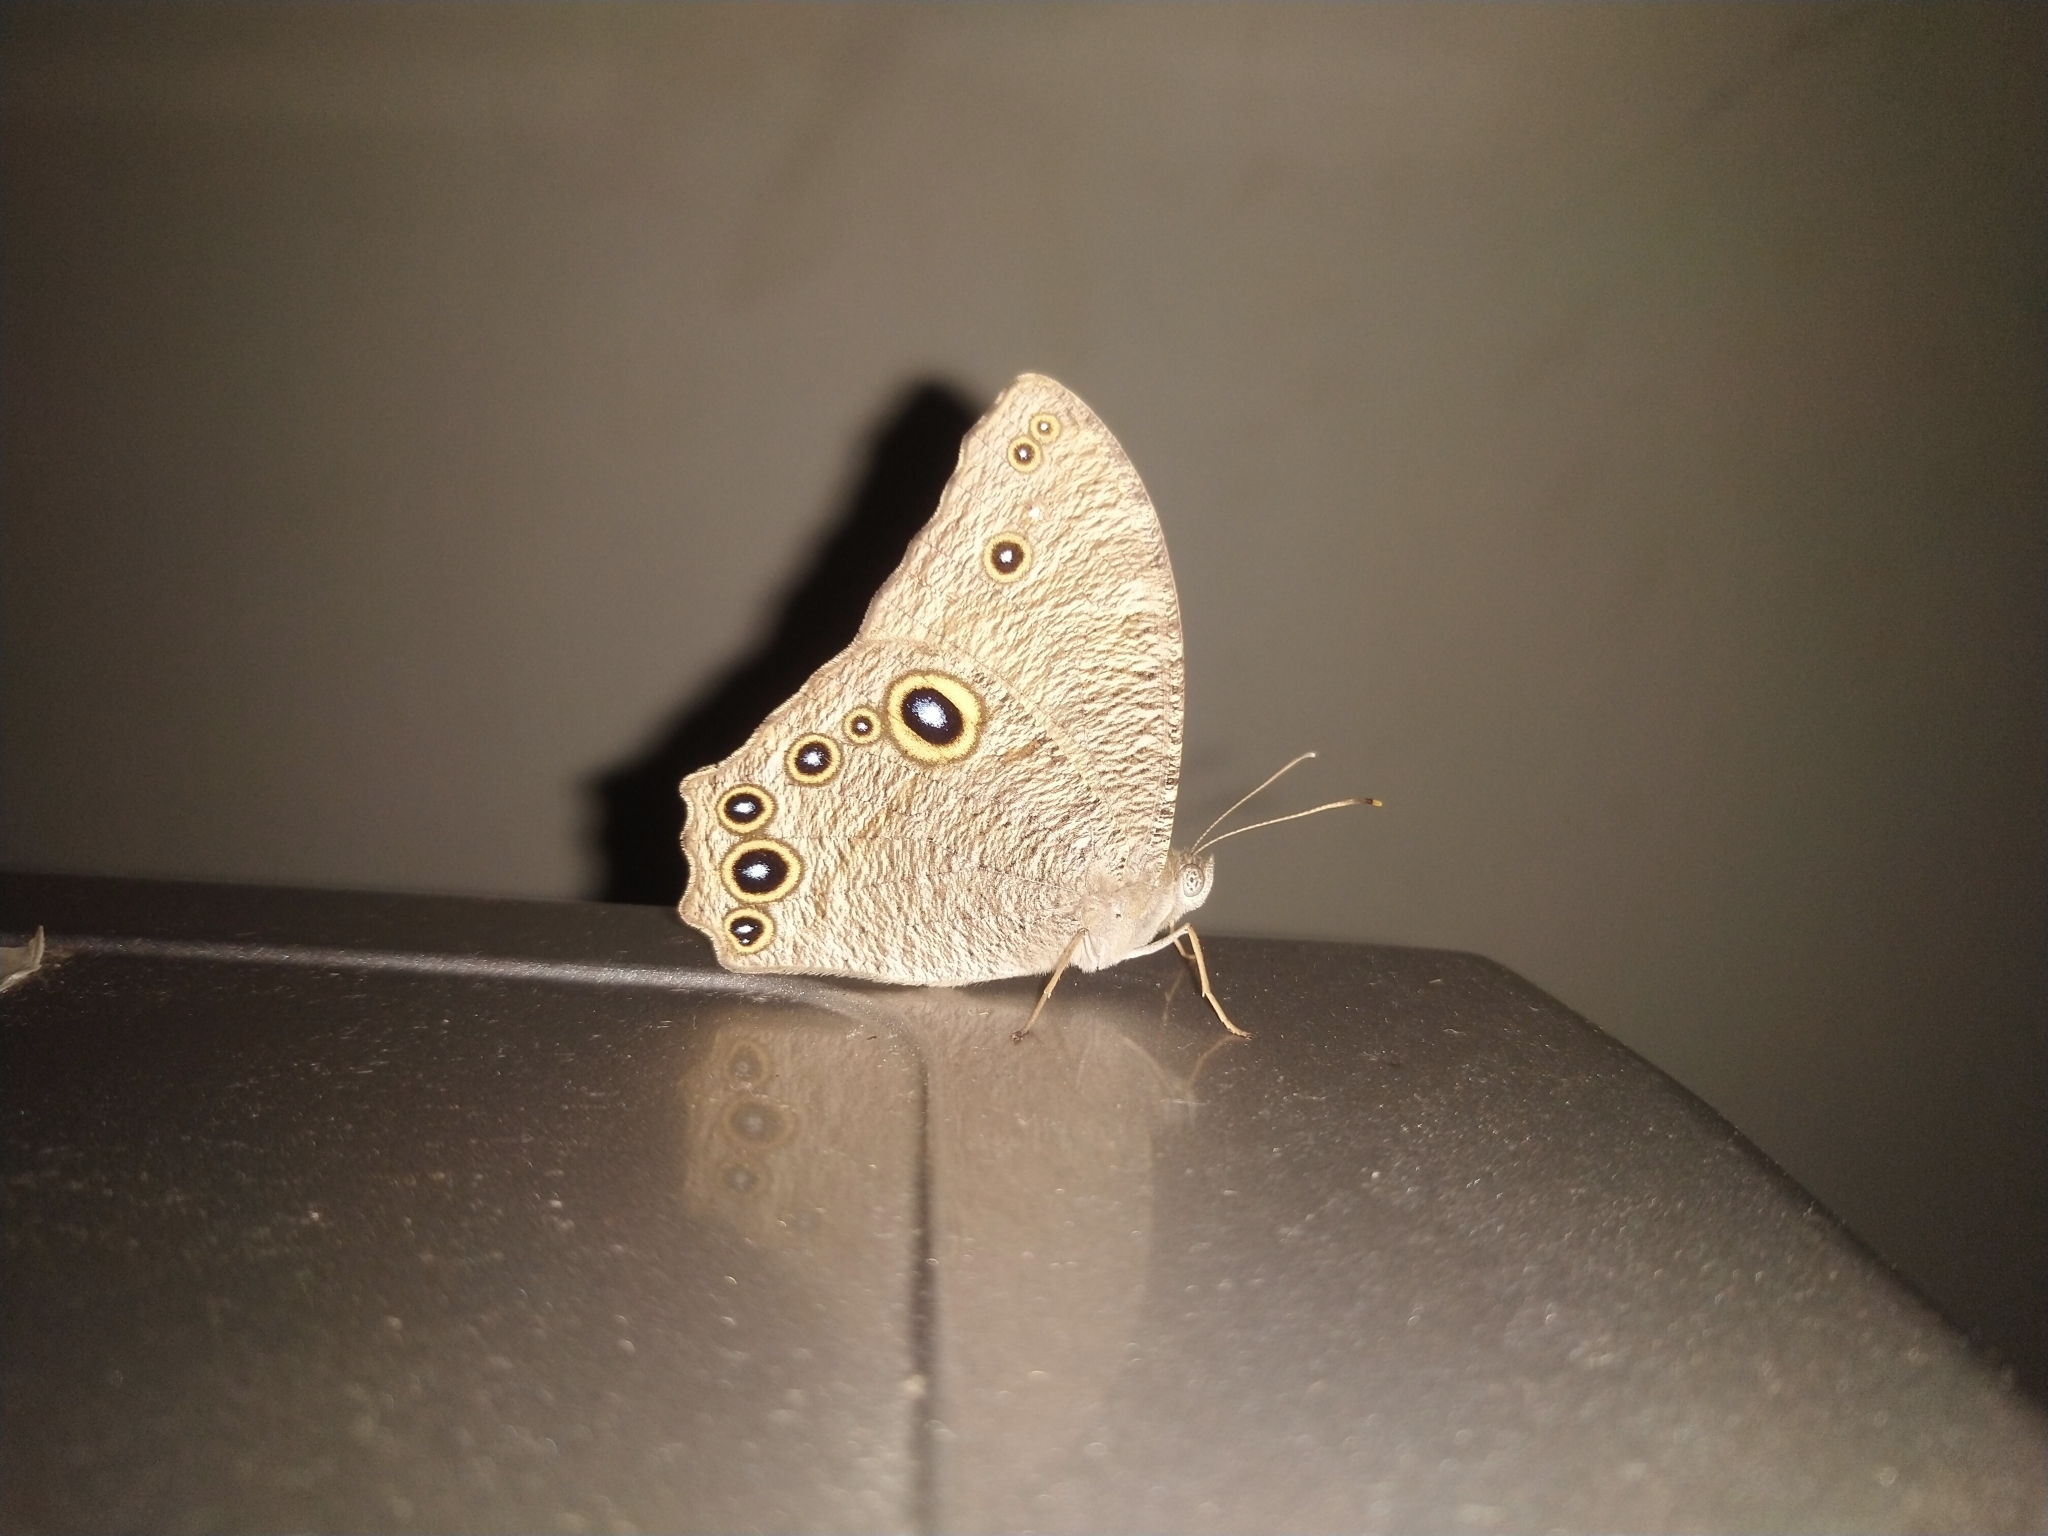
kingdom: Animalia
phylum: Arthropoda
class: Insecta
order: Lepidoptera
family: Nymphalidae
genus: Melanitis
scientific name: Melanitis leda
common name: Twilight brown
